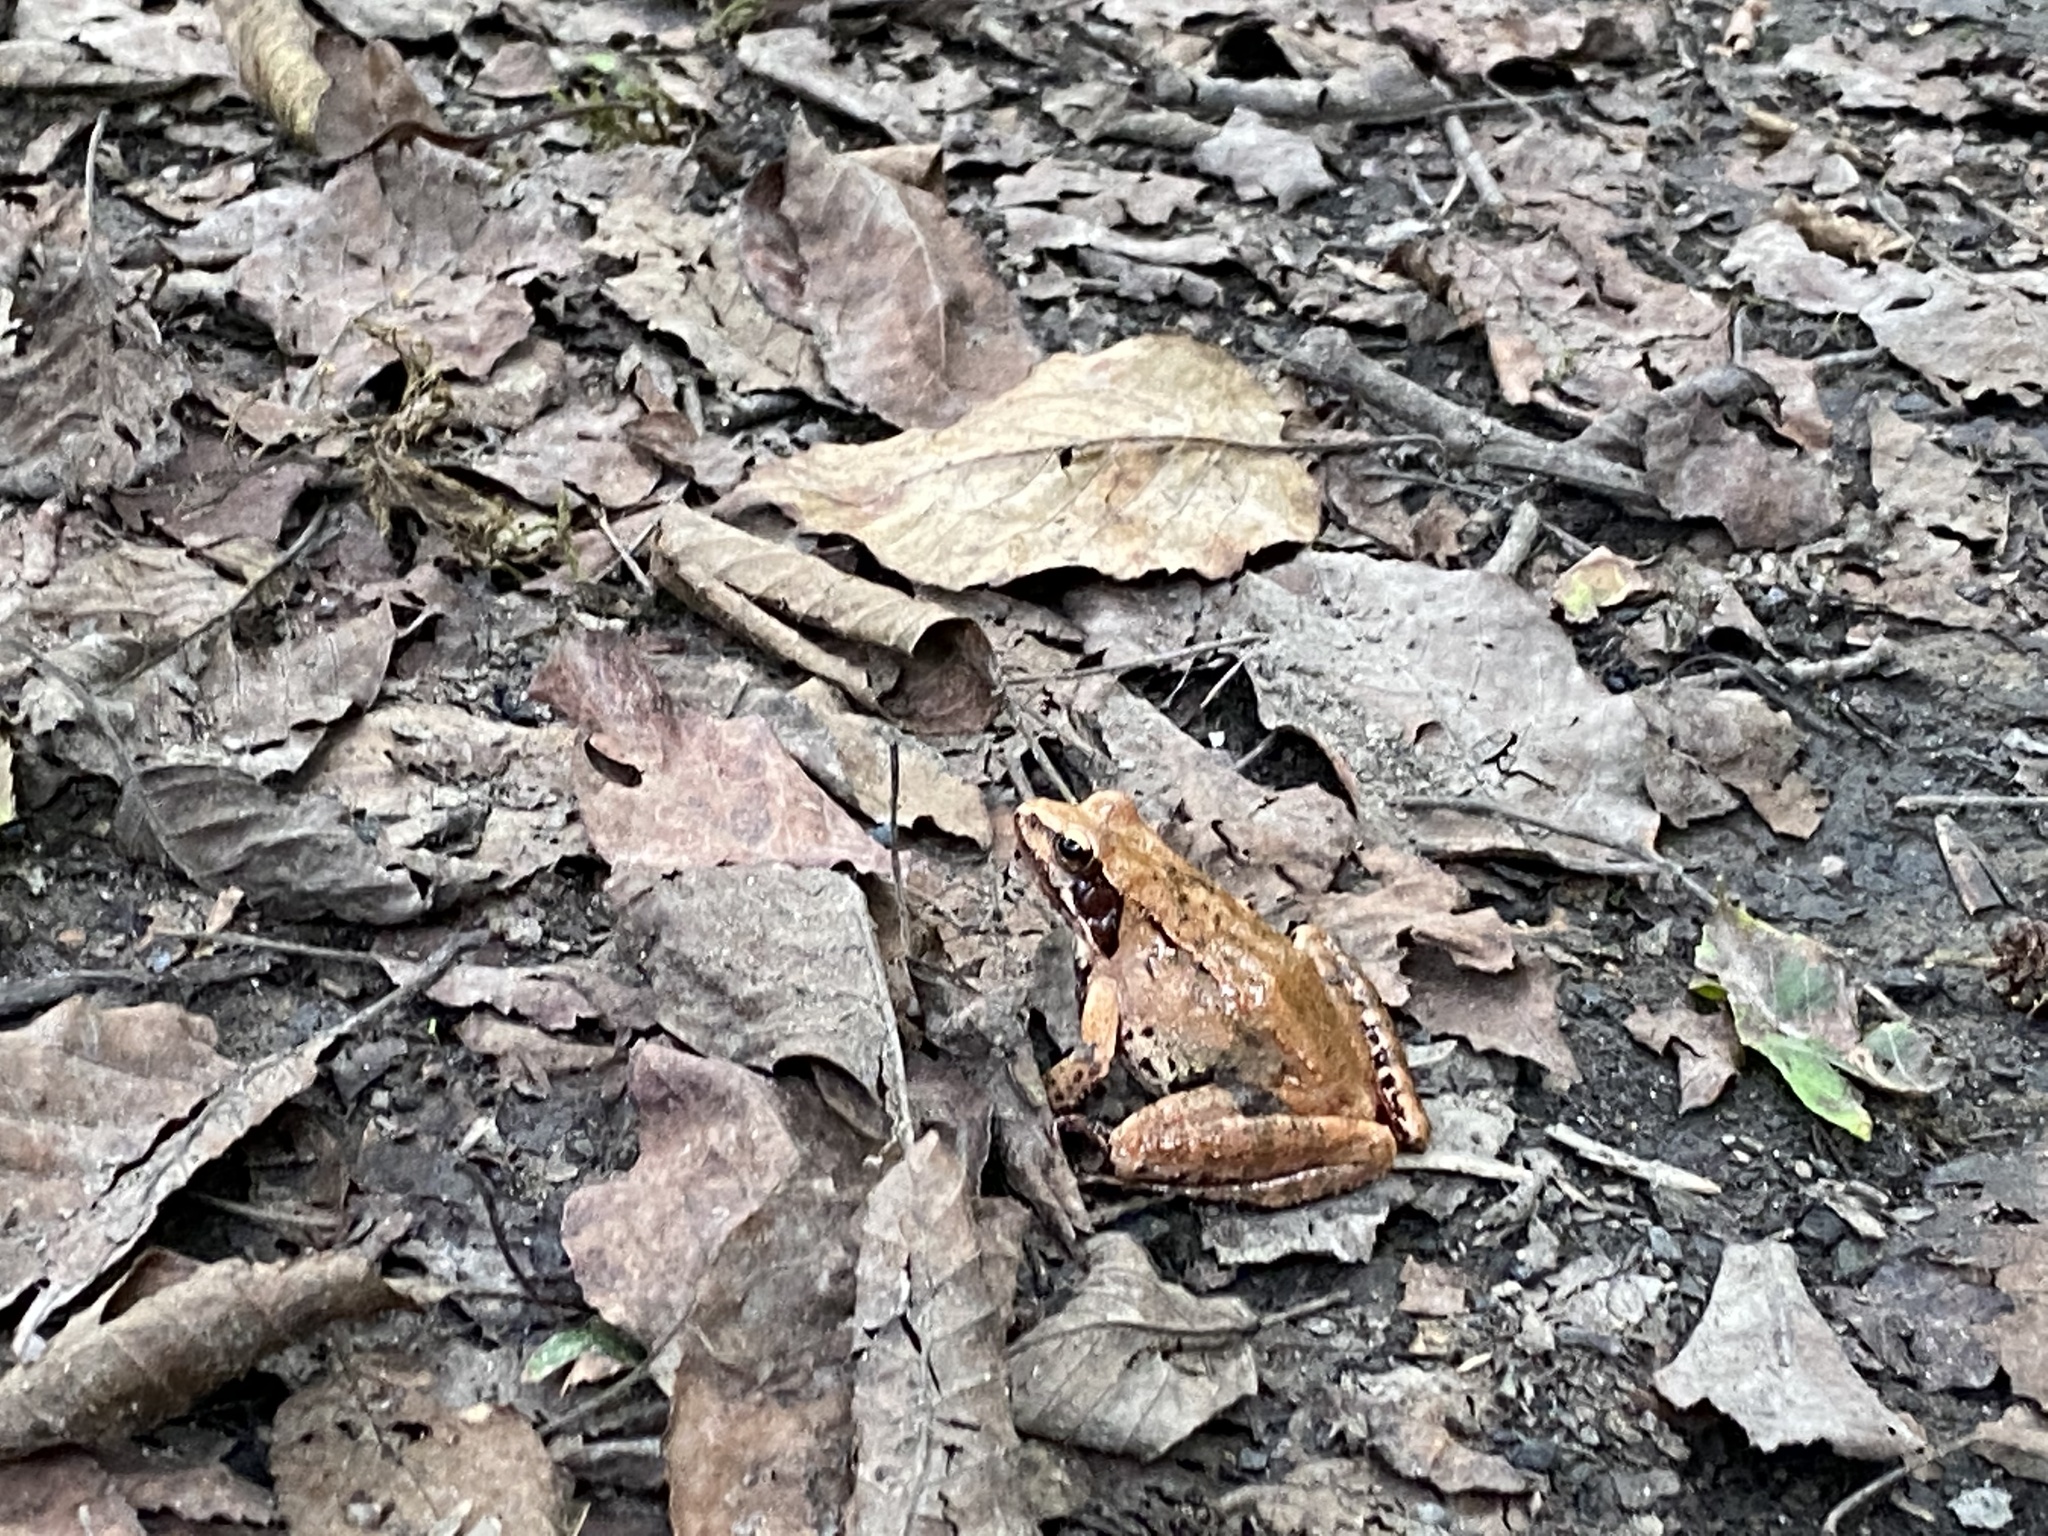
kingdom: Animalia
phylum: Chordata
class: Amphibia
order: Anura
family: Ranidae
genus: Rana
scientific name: Rana pseudodalmatina
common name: Hyrcanian frog
